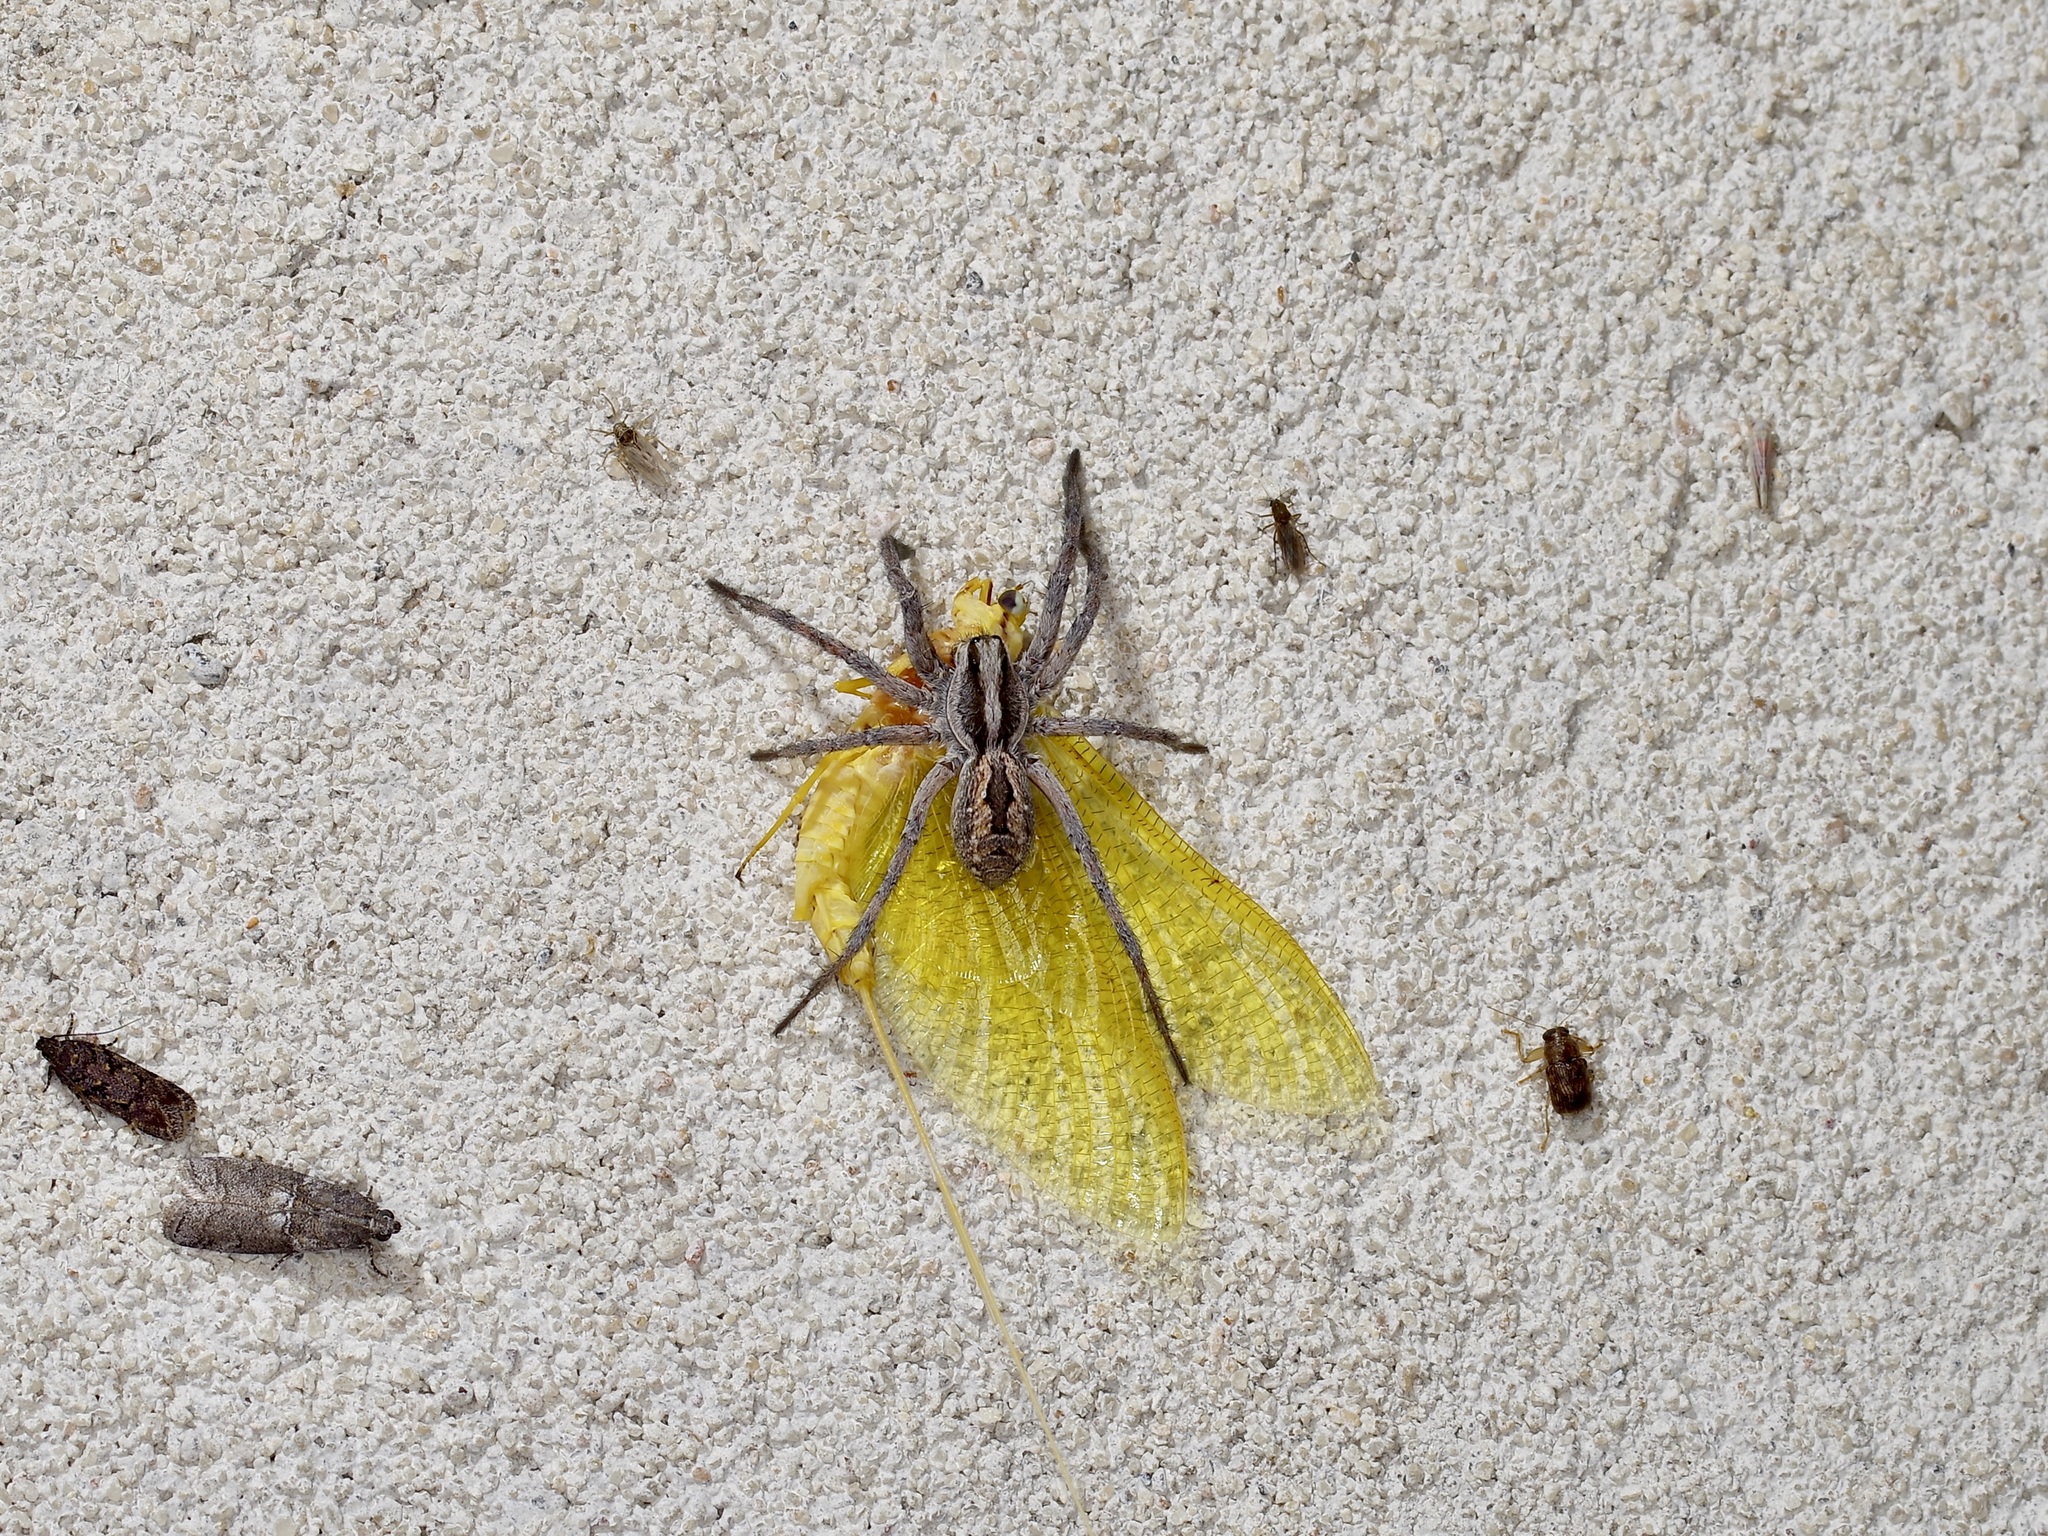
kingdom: Animalia
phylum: Arthropoda
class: Arachnida
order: Araneae
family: Lycosidae
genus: Hogna
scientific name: Hogna carolinensis
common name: Carolina wolf spider
